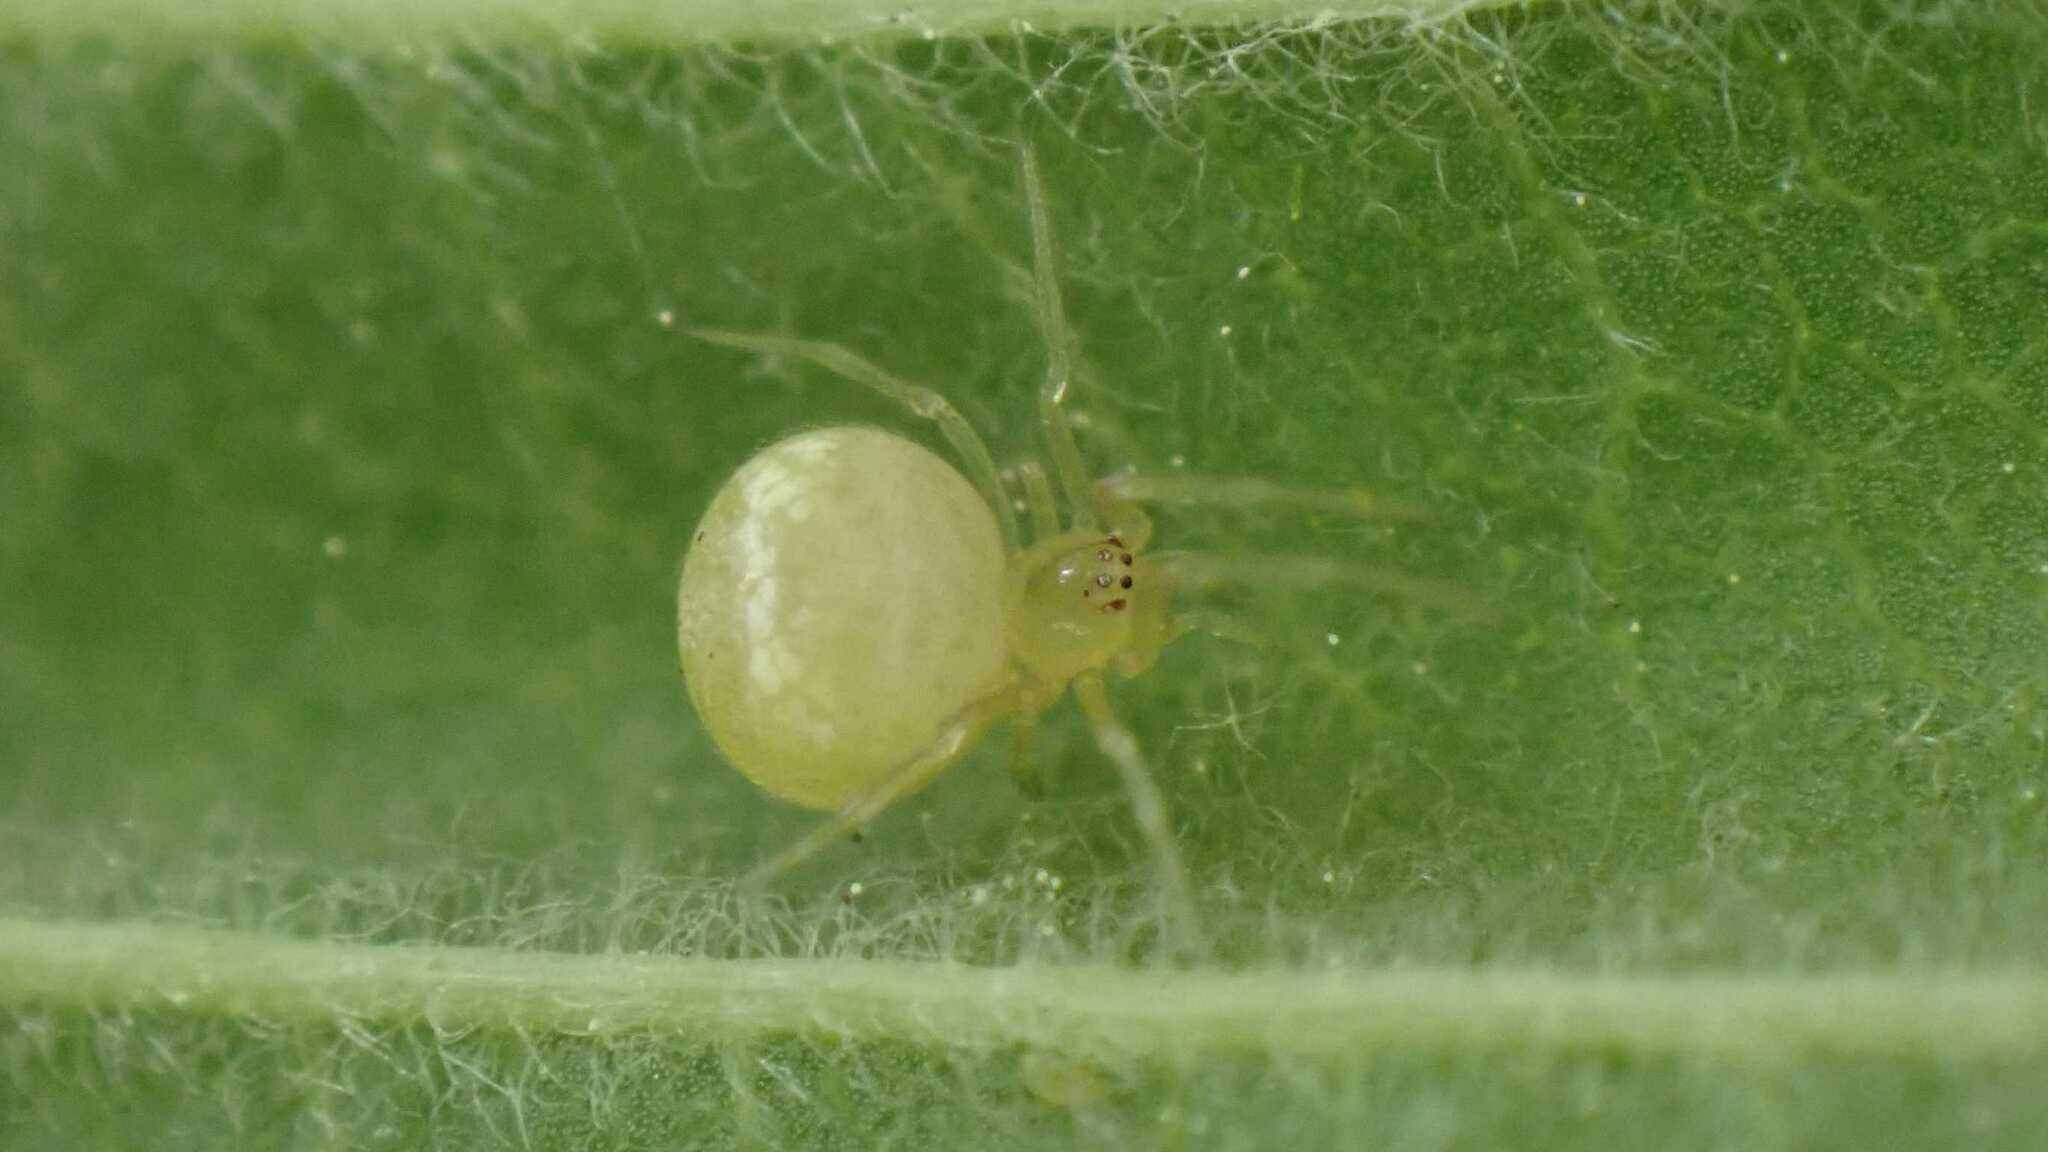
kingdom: Animalia
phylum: Arthropoda
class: Arachnida
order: Araneae
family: Theridiidae
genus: Paidiscura
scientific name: Paidiscura pallens
